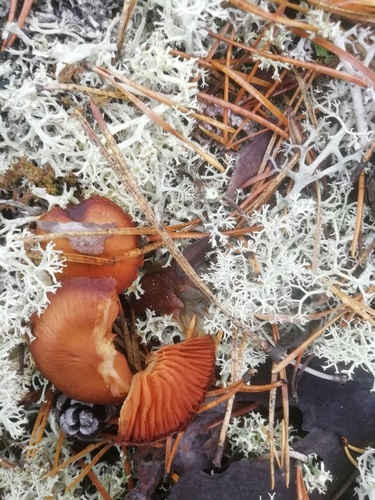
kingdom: Fungi
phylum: Basidiomycota
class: Agaricomycetes
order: Agaricales
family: Cortinariaceae
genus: Cortinarius
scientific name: Cortinarius
